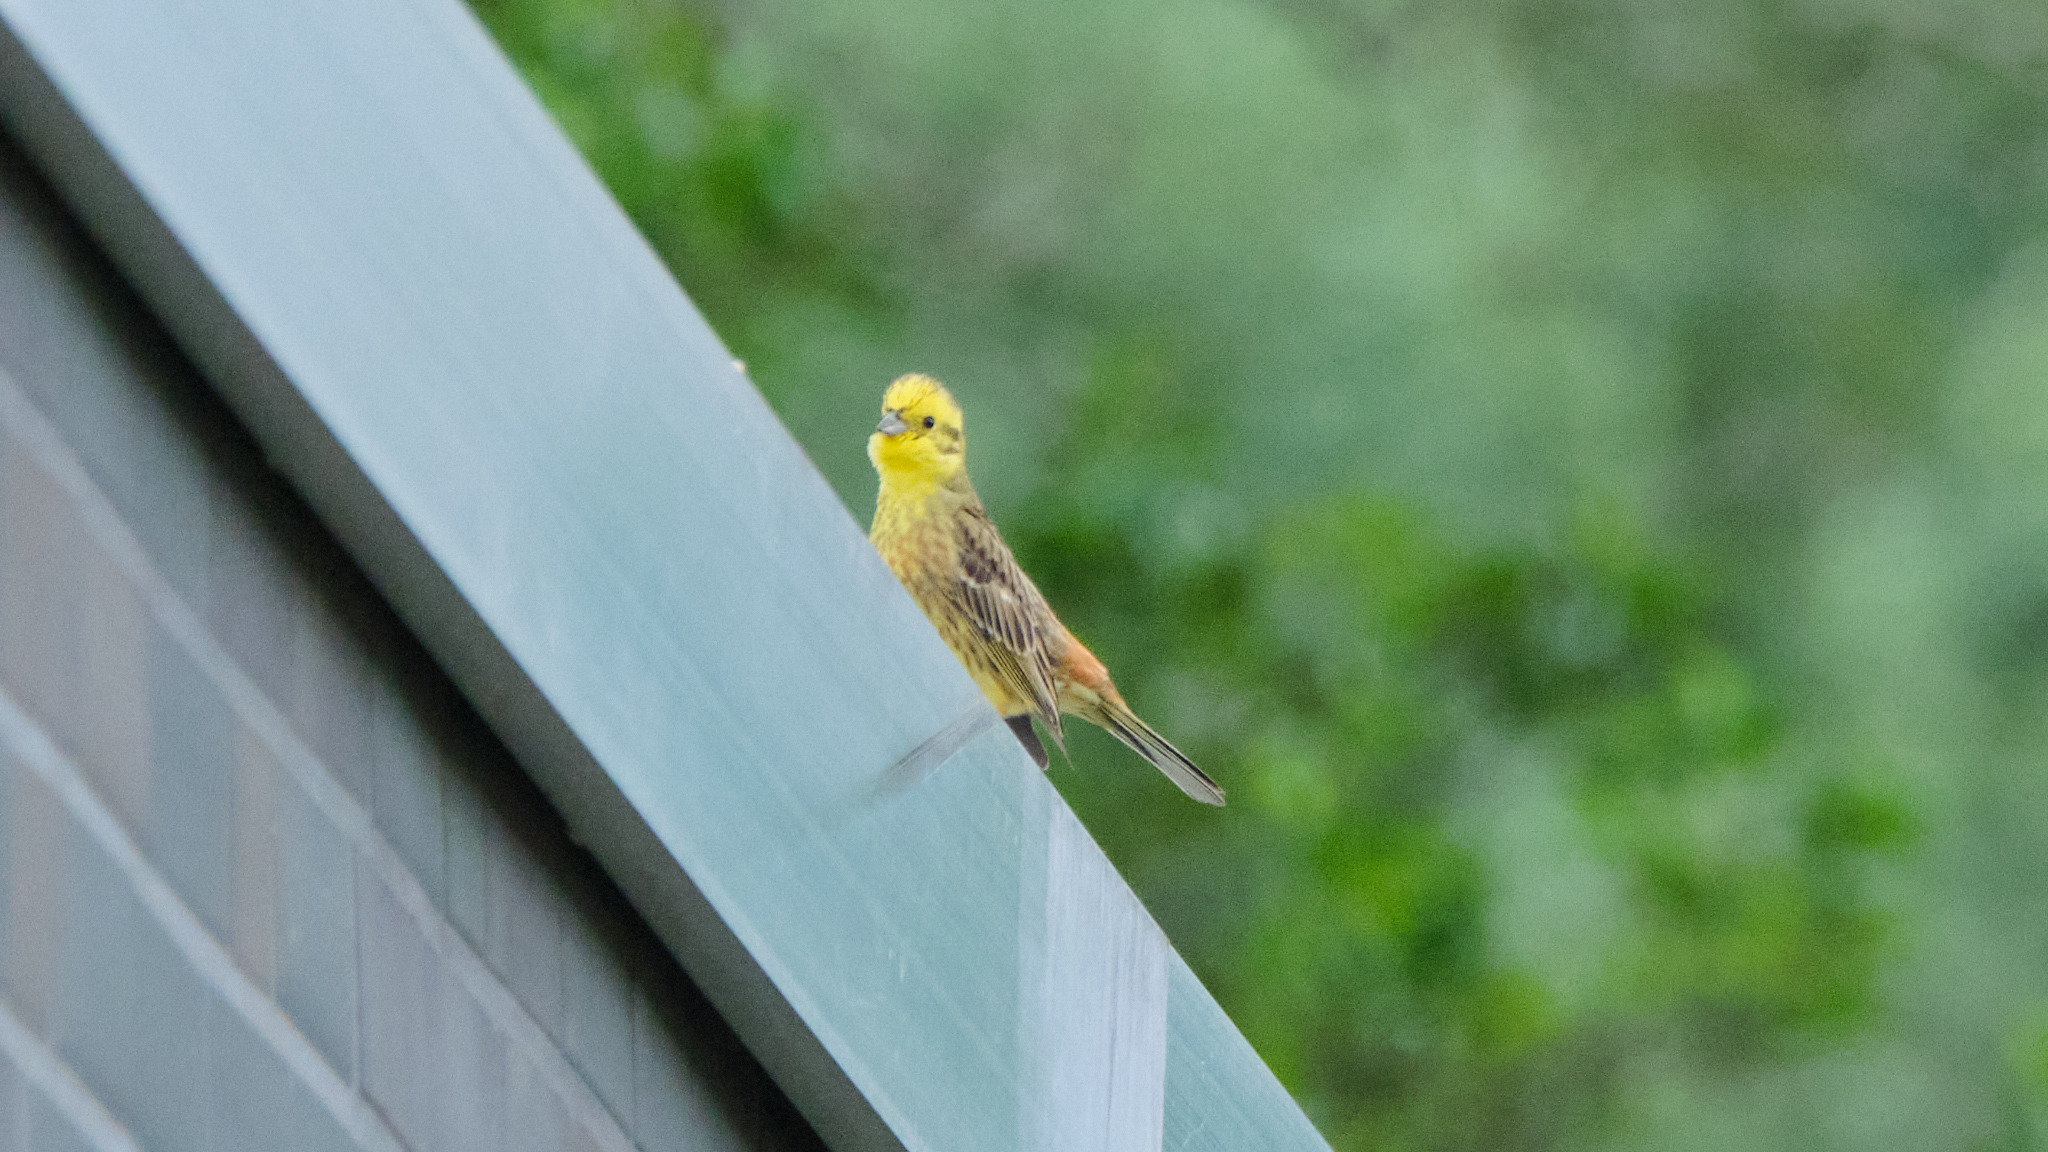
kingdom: Animalia
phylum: Chordata
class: Aves
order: Passeriformes
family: Emberizidae
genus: Emberiza
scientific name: Emberiza citrinella
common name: Yellowhammer
